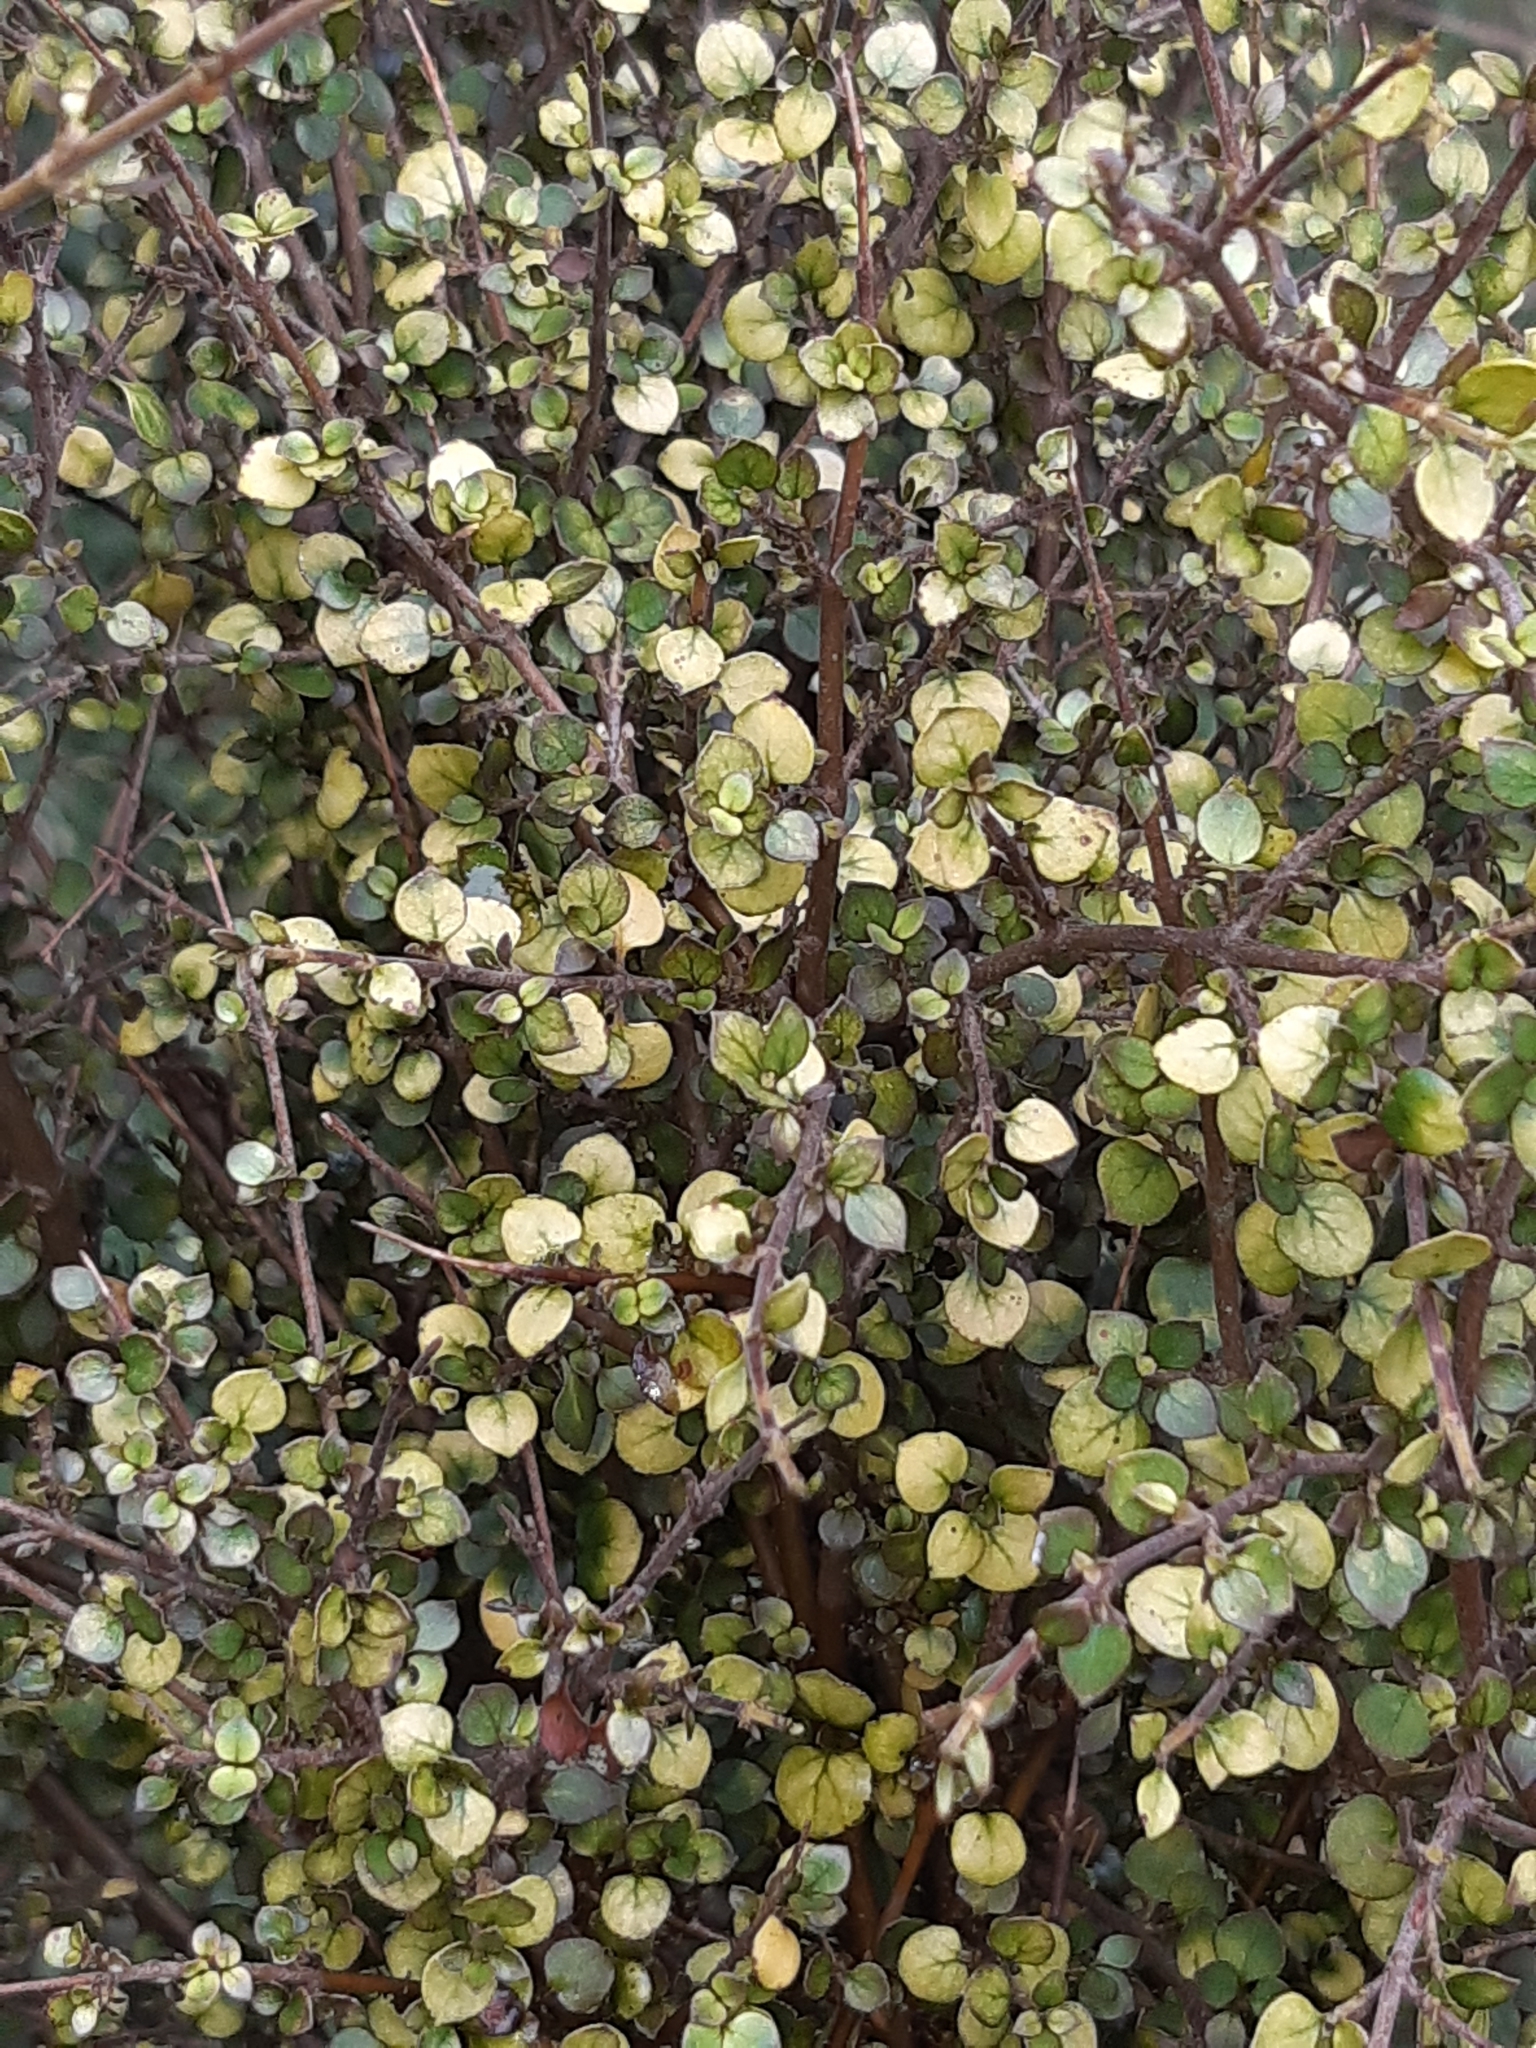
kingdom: Plantae
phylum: Tracheophyta
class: Magnoliopsida
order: Gentianales
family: Rubiaceae
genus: Coprosma
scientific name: Coprosma rhamnoides
